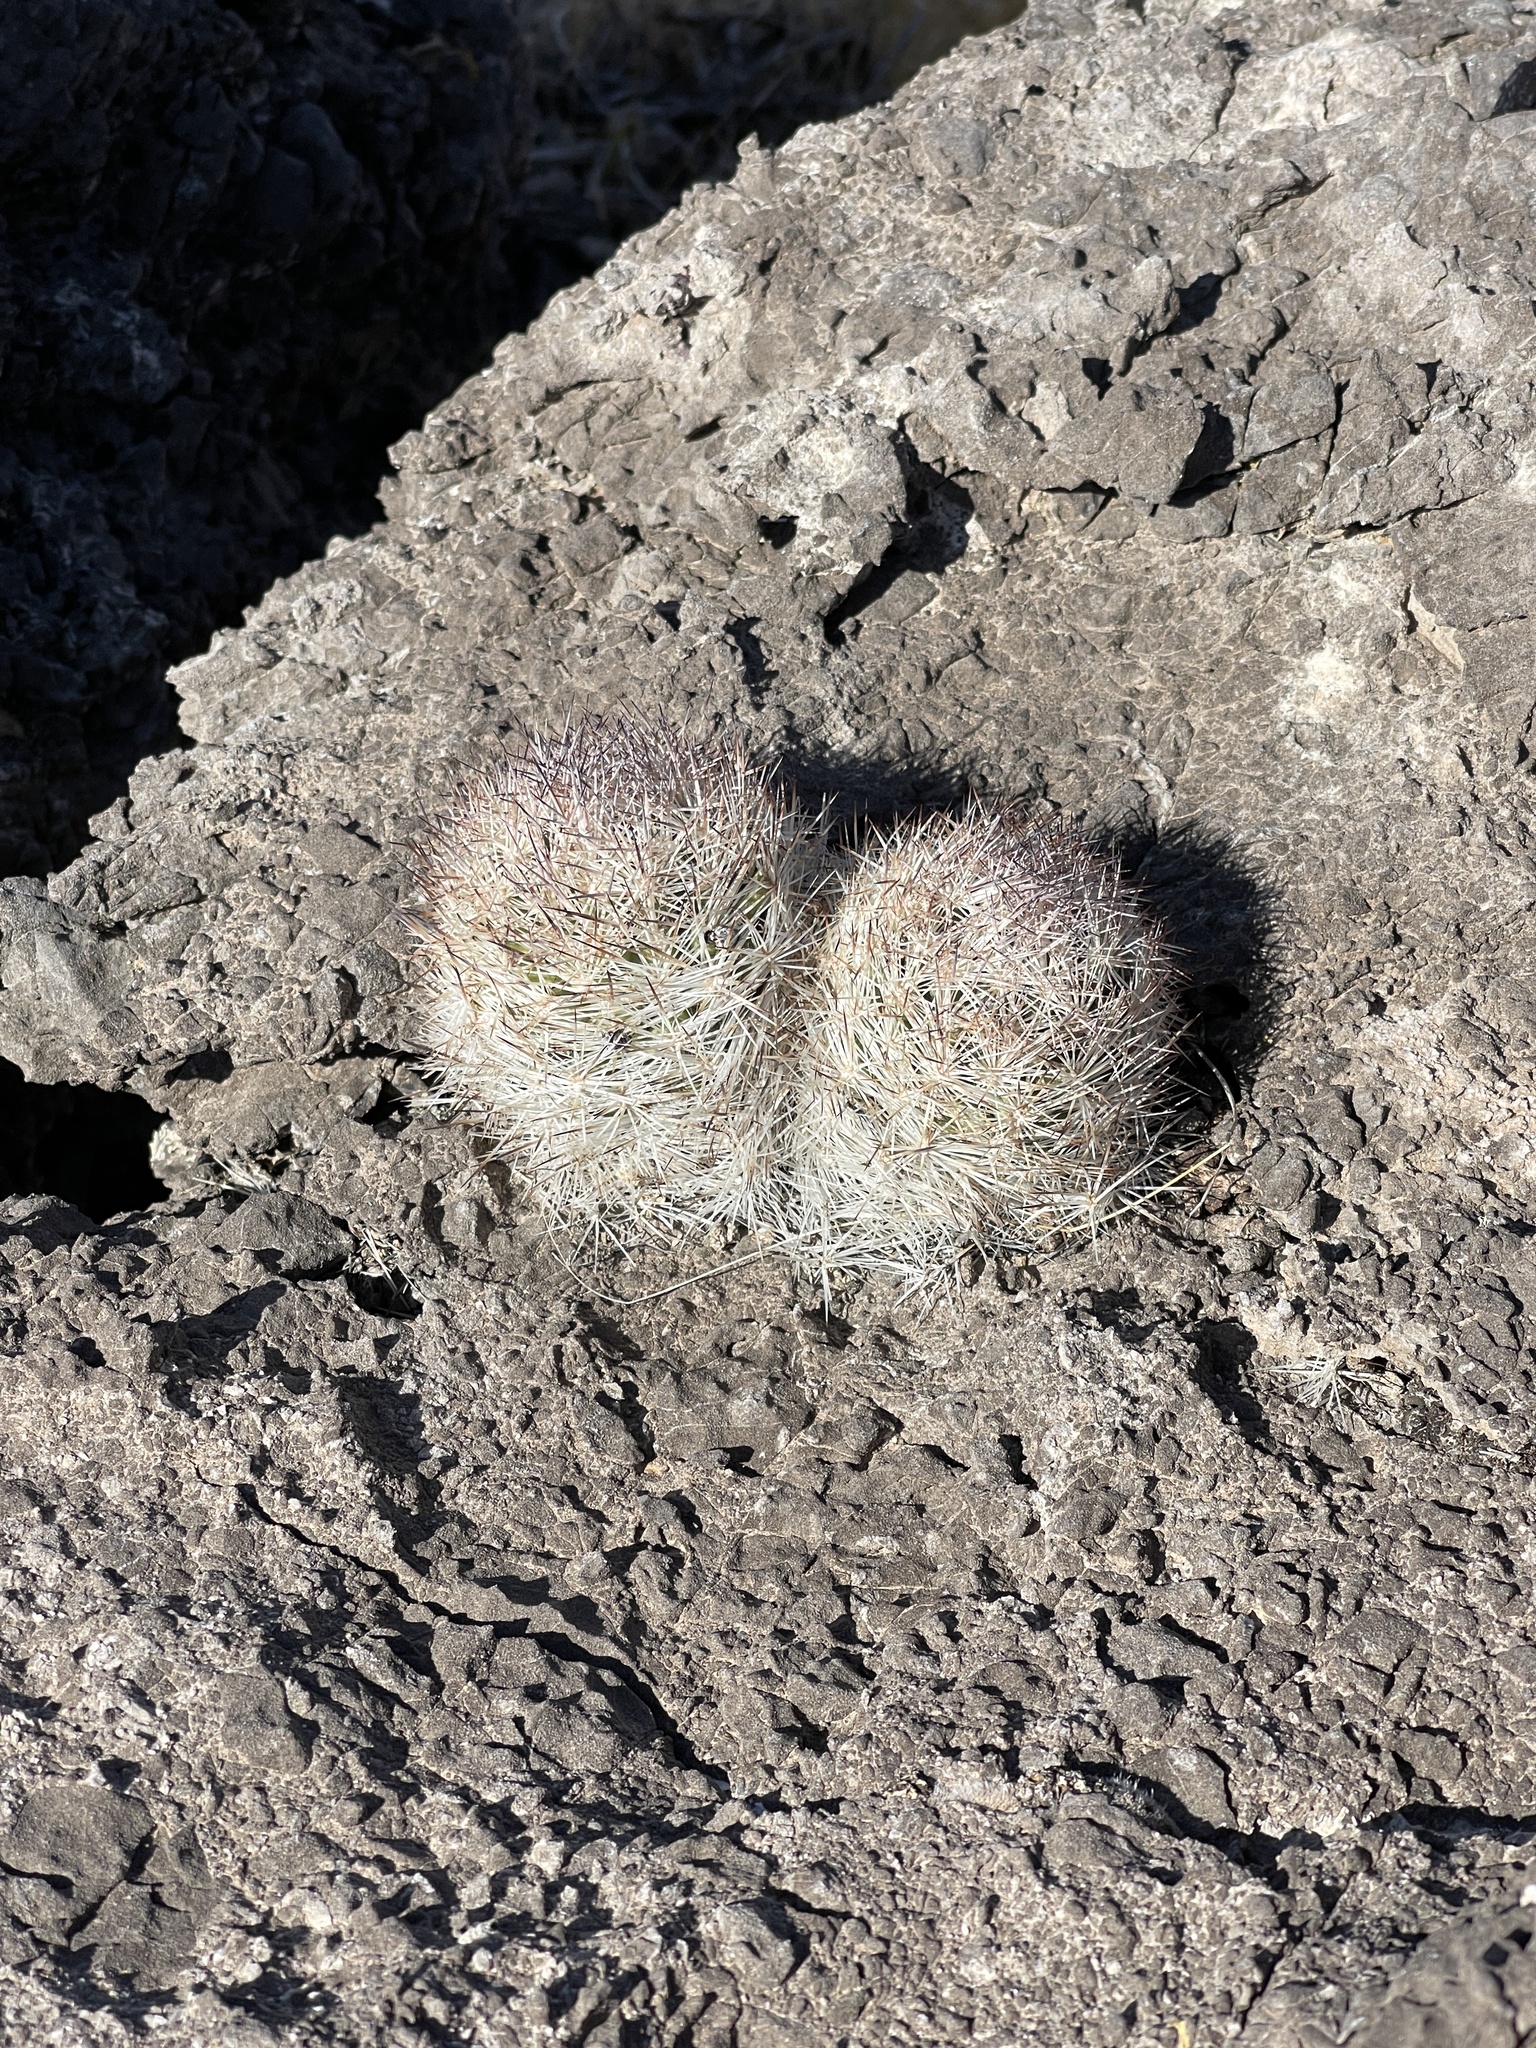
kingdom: Plantae
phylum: Tracheophyta
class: Magnoliopsida
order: Caryophyllales
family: Cactaceae
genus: Pelecyphora
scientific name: Pelecyphora dasyacantha
